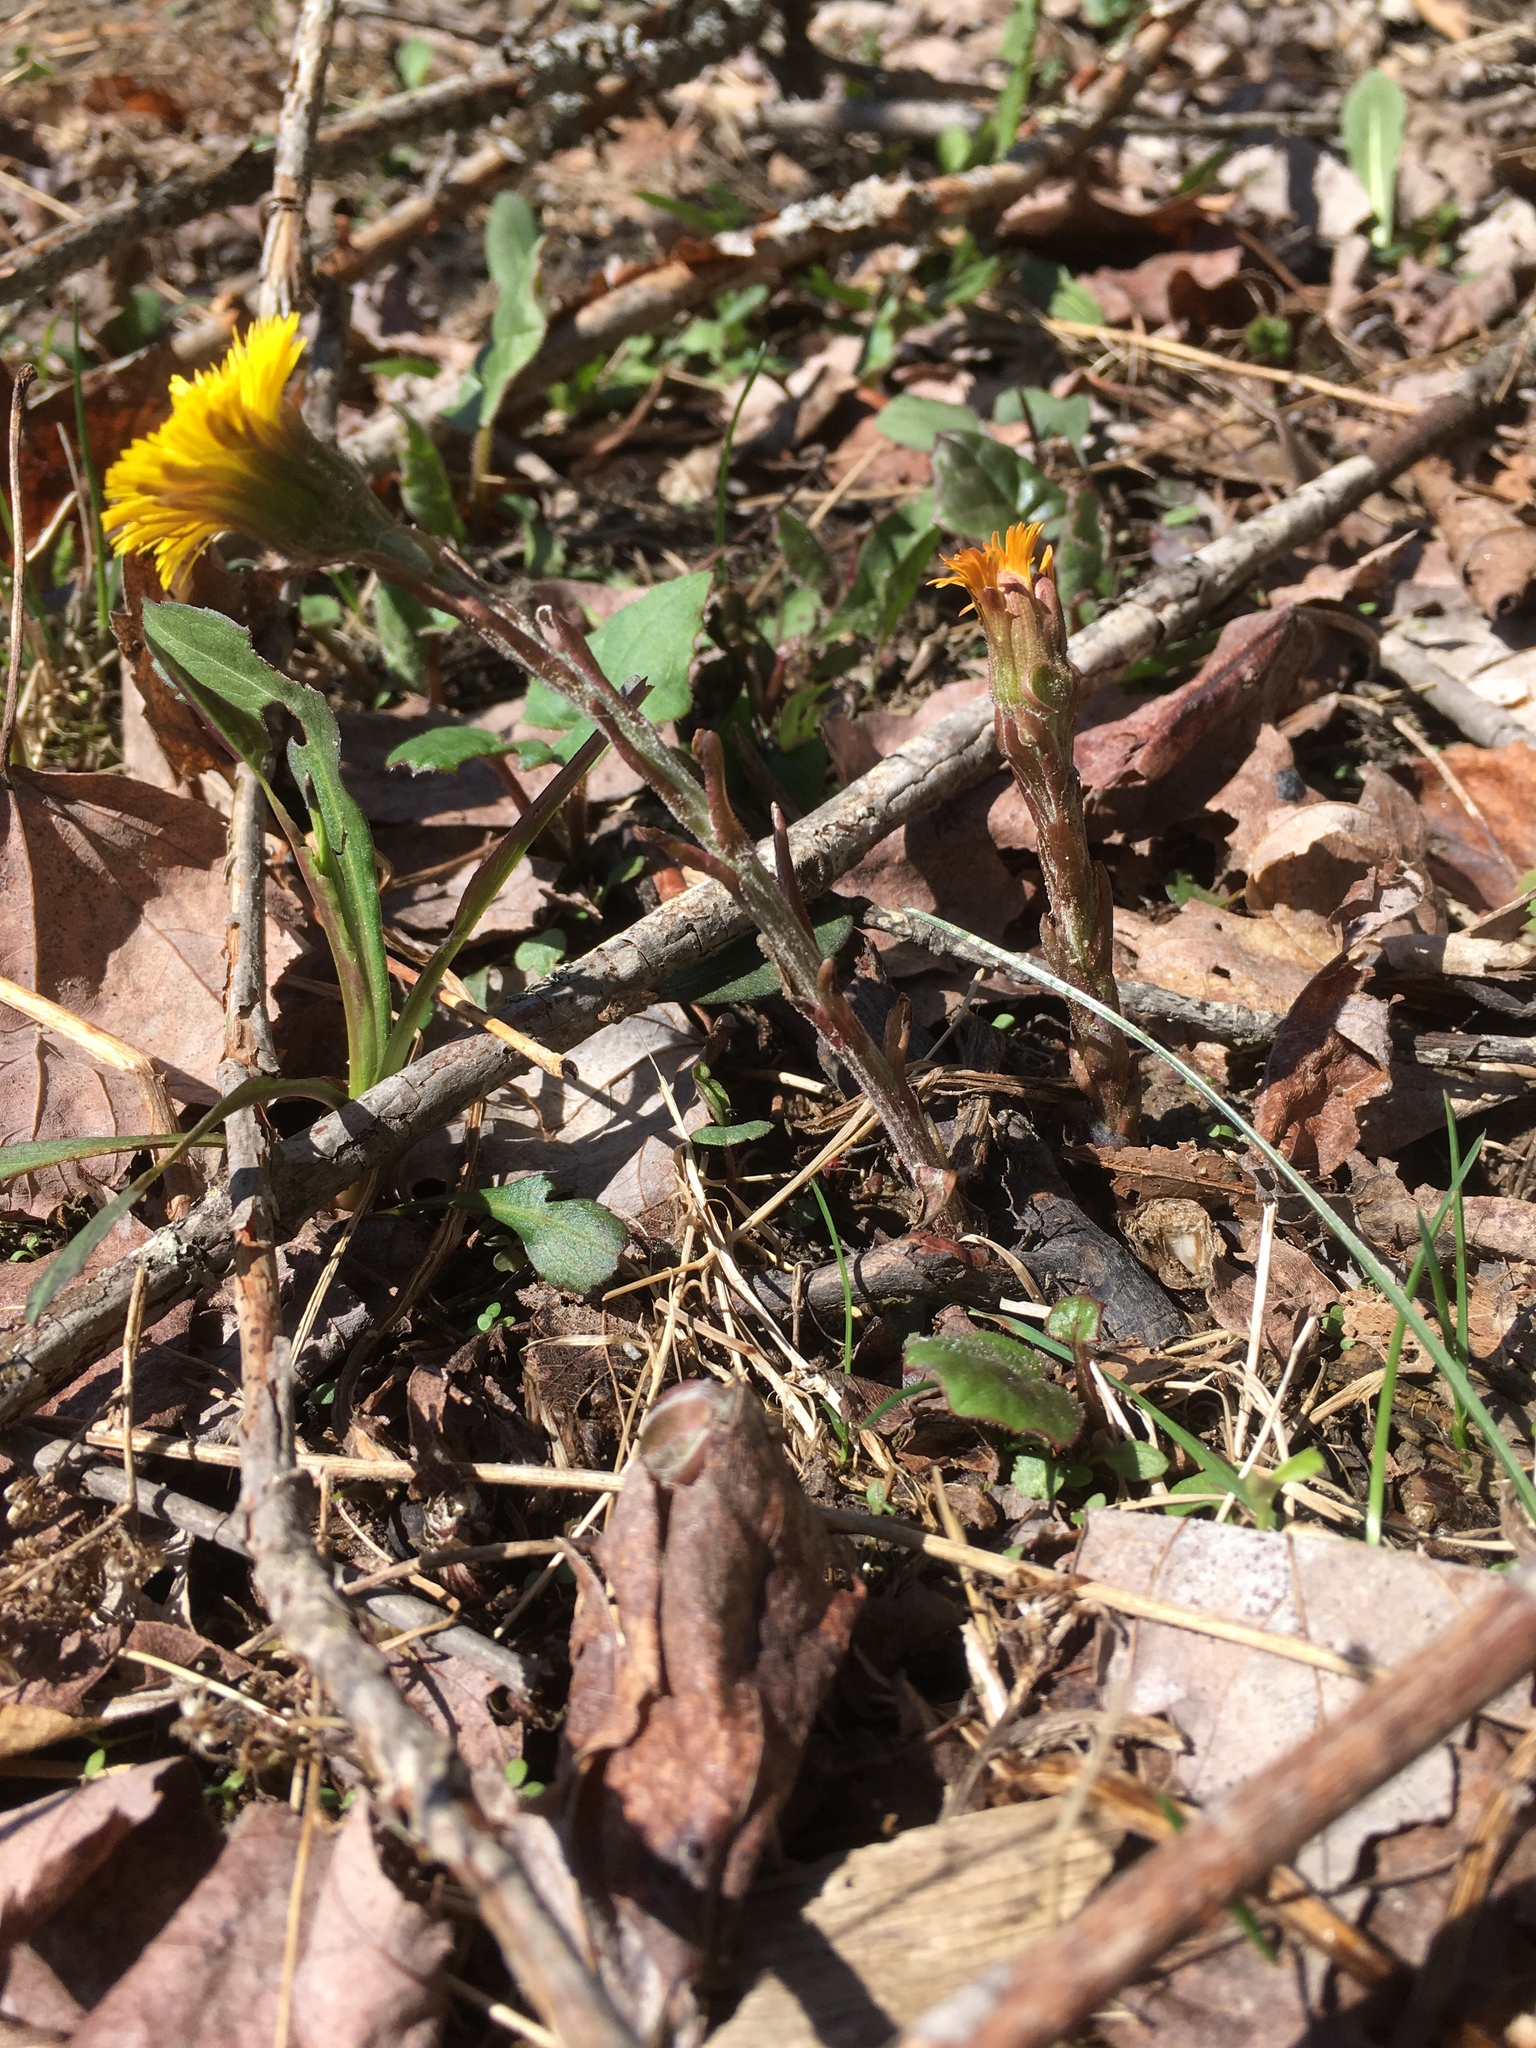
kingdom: Plantae
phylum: Tracheophyta
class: Magnoliopsida
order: Asterales
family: Asteraceae
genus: Tussilago
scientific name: Tussilago farfara
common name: Coltsfoot
